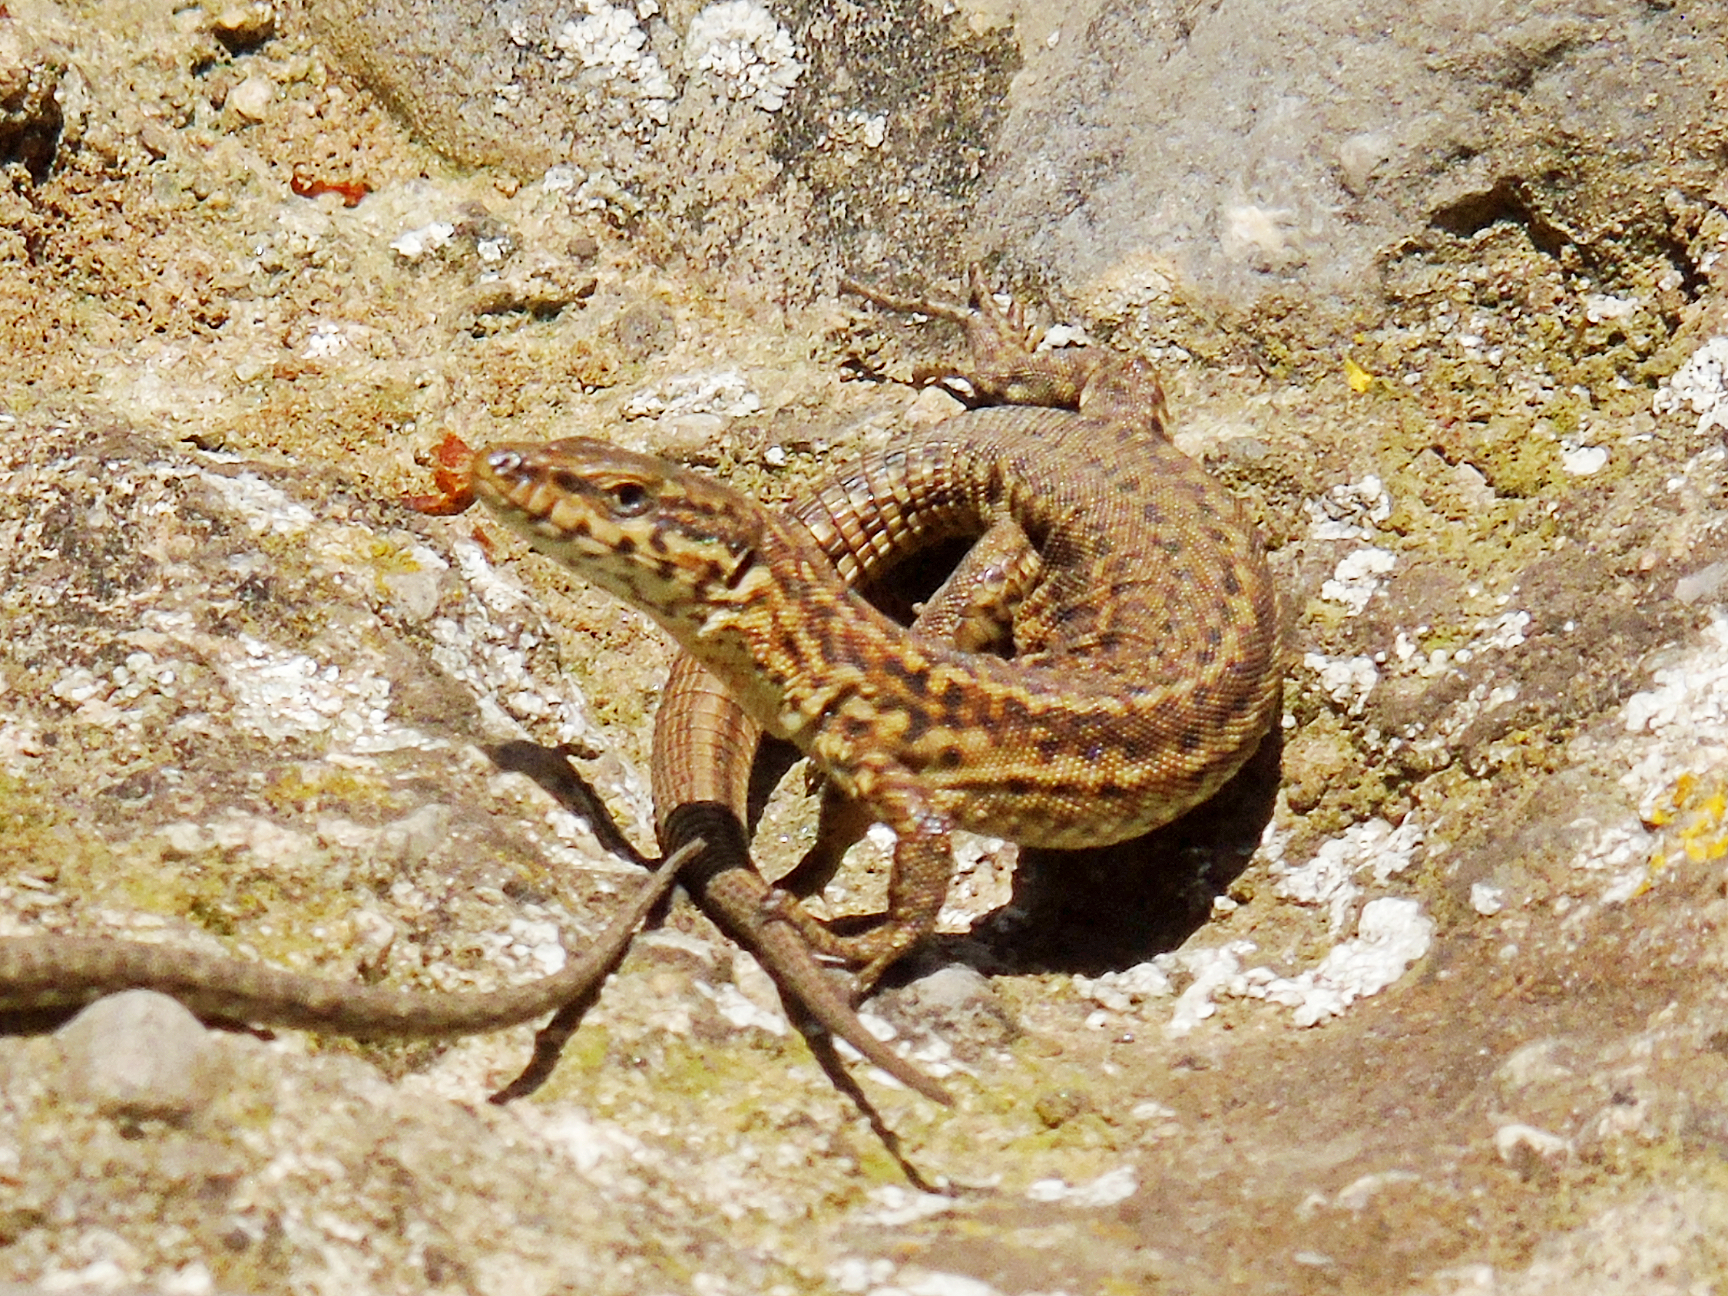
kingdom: Animalia
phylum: Chordata
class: Squamata
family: Lacertidae
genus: Podarcis
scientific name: Podarcis liolepis
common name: Catalonian wall lizard
